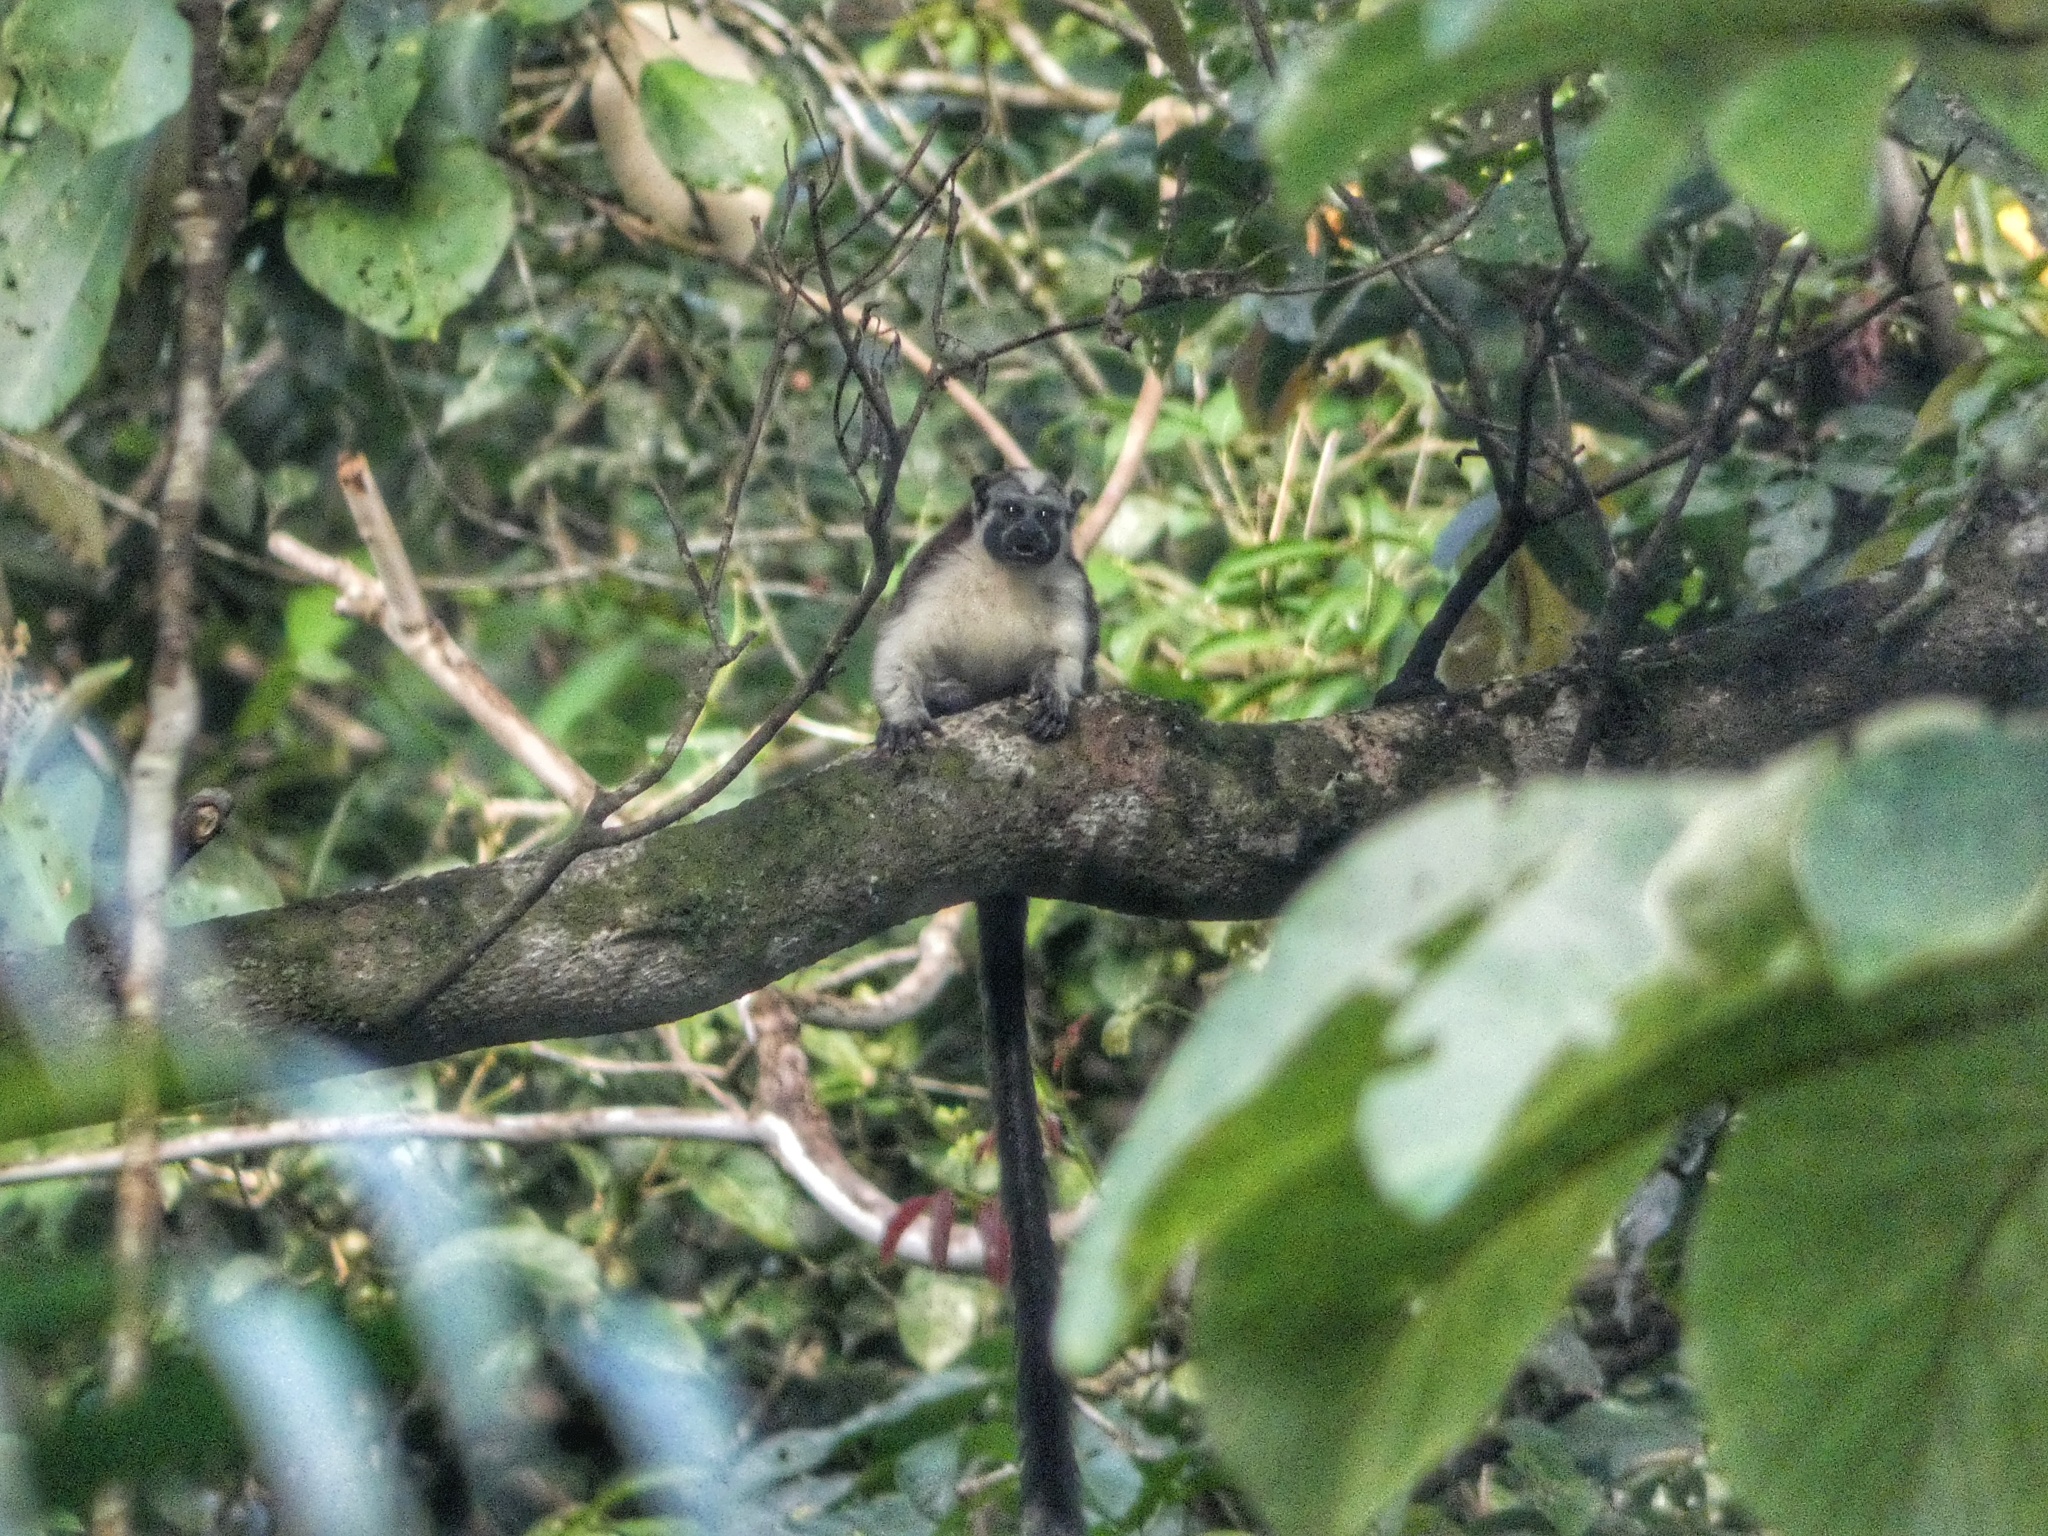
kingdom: Animalia
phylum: Chordata
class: Mammalia
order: Primates
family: Callitrichidae
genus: Saguinus
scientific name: Saguinus geoffroyi
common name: Geoffroy s tamarin
